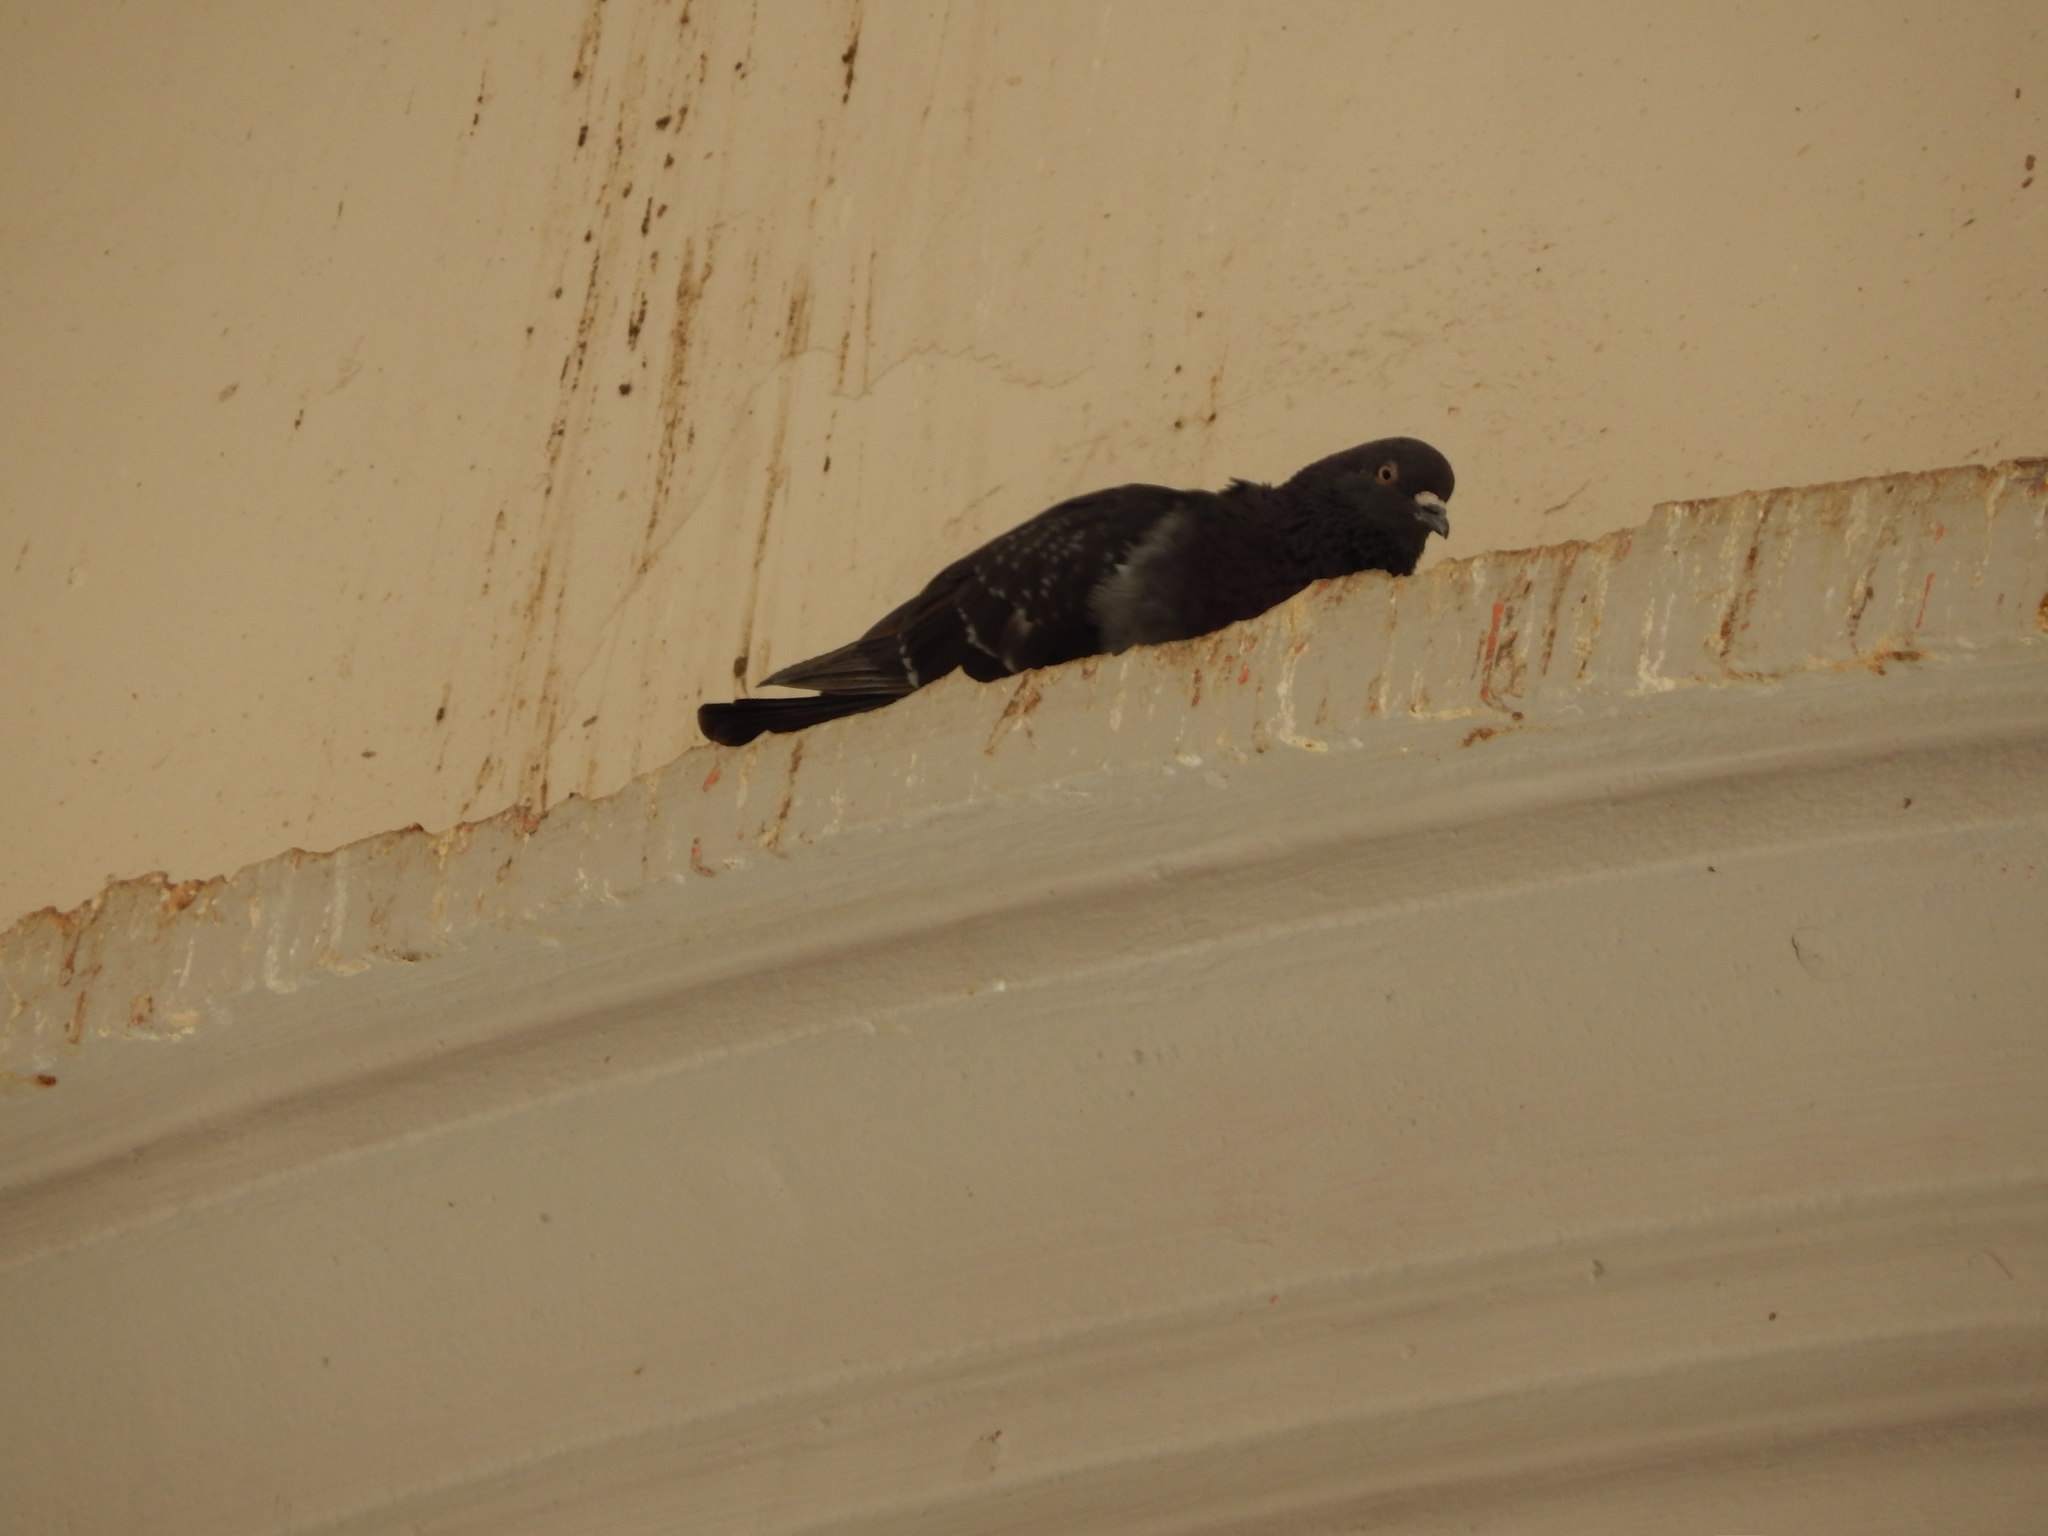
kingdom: Animalia
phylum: Chordata
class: Aves
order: Columbiformes
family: Columbidae
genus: Columba
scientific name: Columba livia
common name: Rock pigeon
